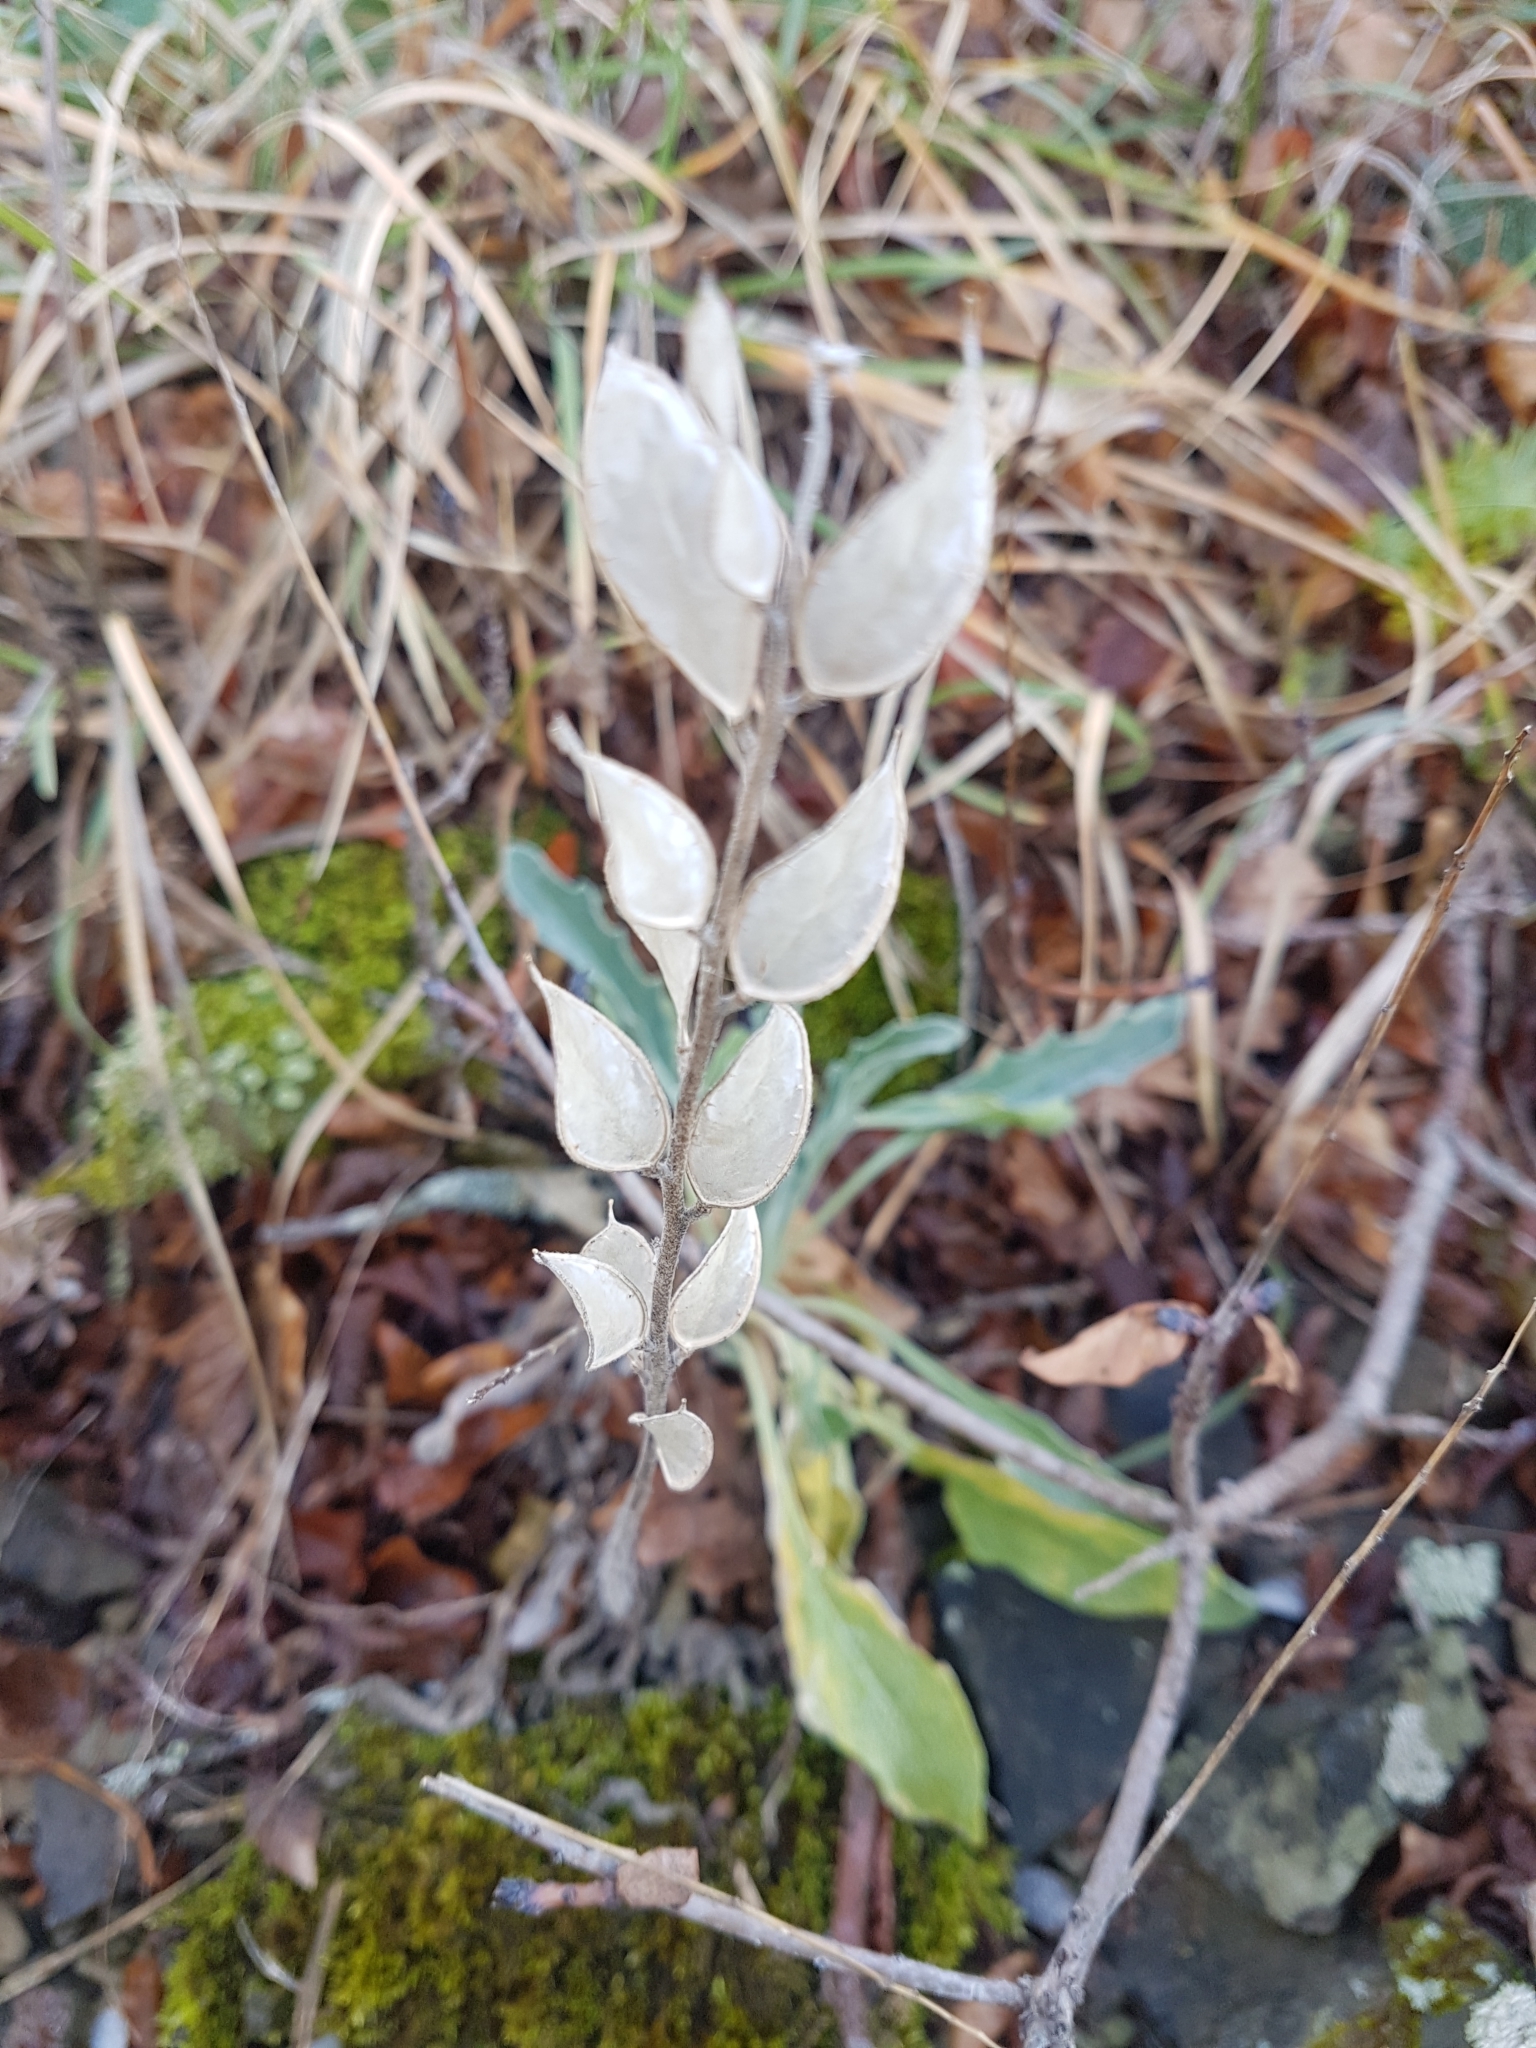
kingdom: Plantae
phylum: Tracheophyta
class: Magnoliopsida
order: Brassicales
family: Brassicaceae
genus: Fibigia
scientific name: Fibigia clypeata
